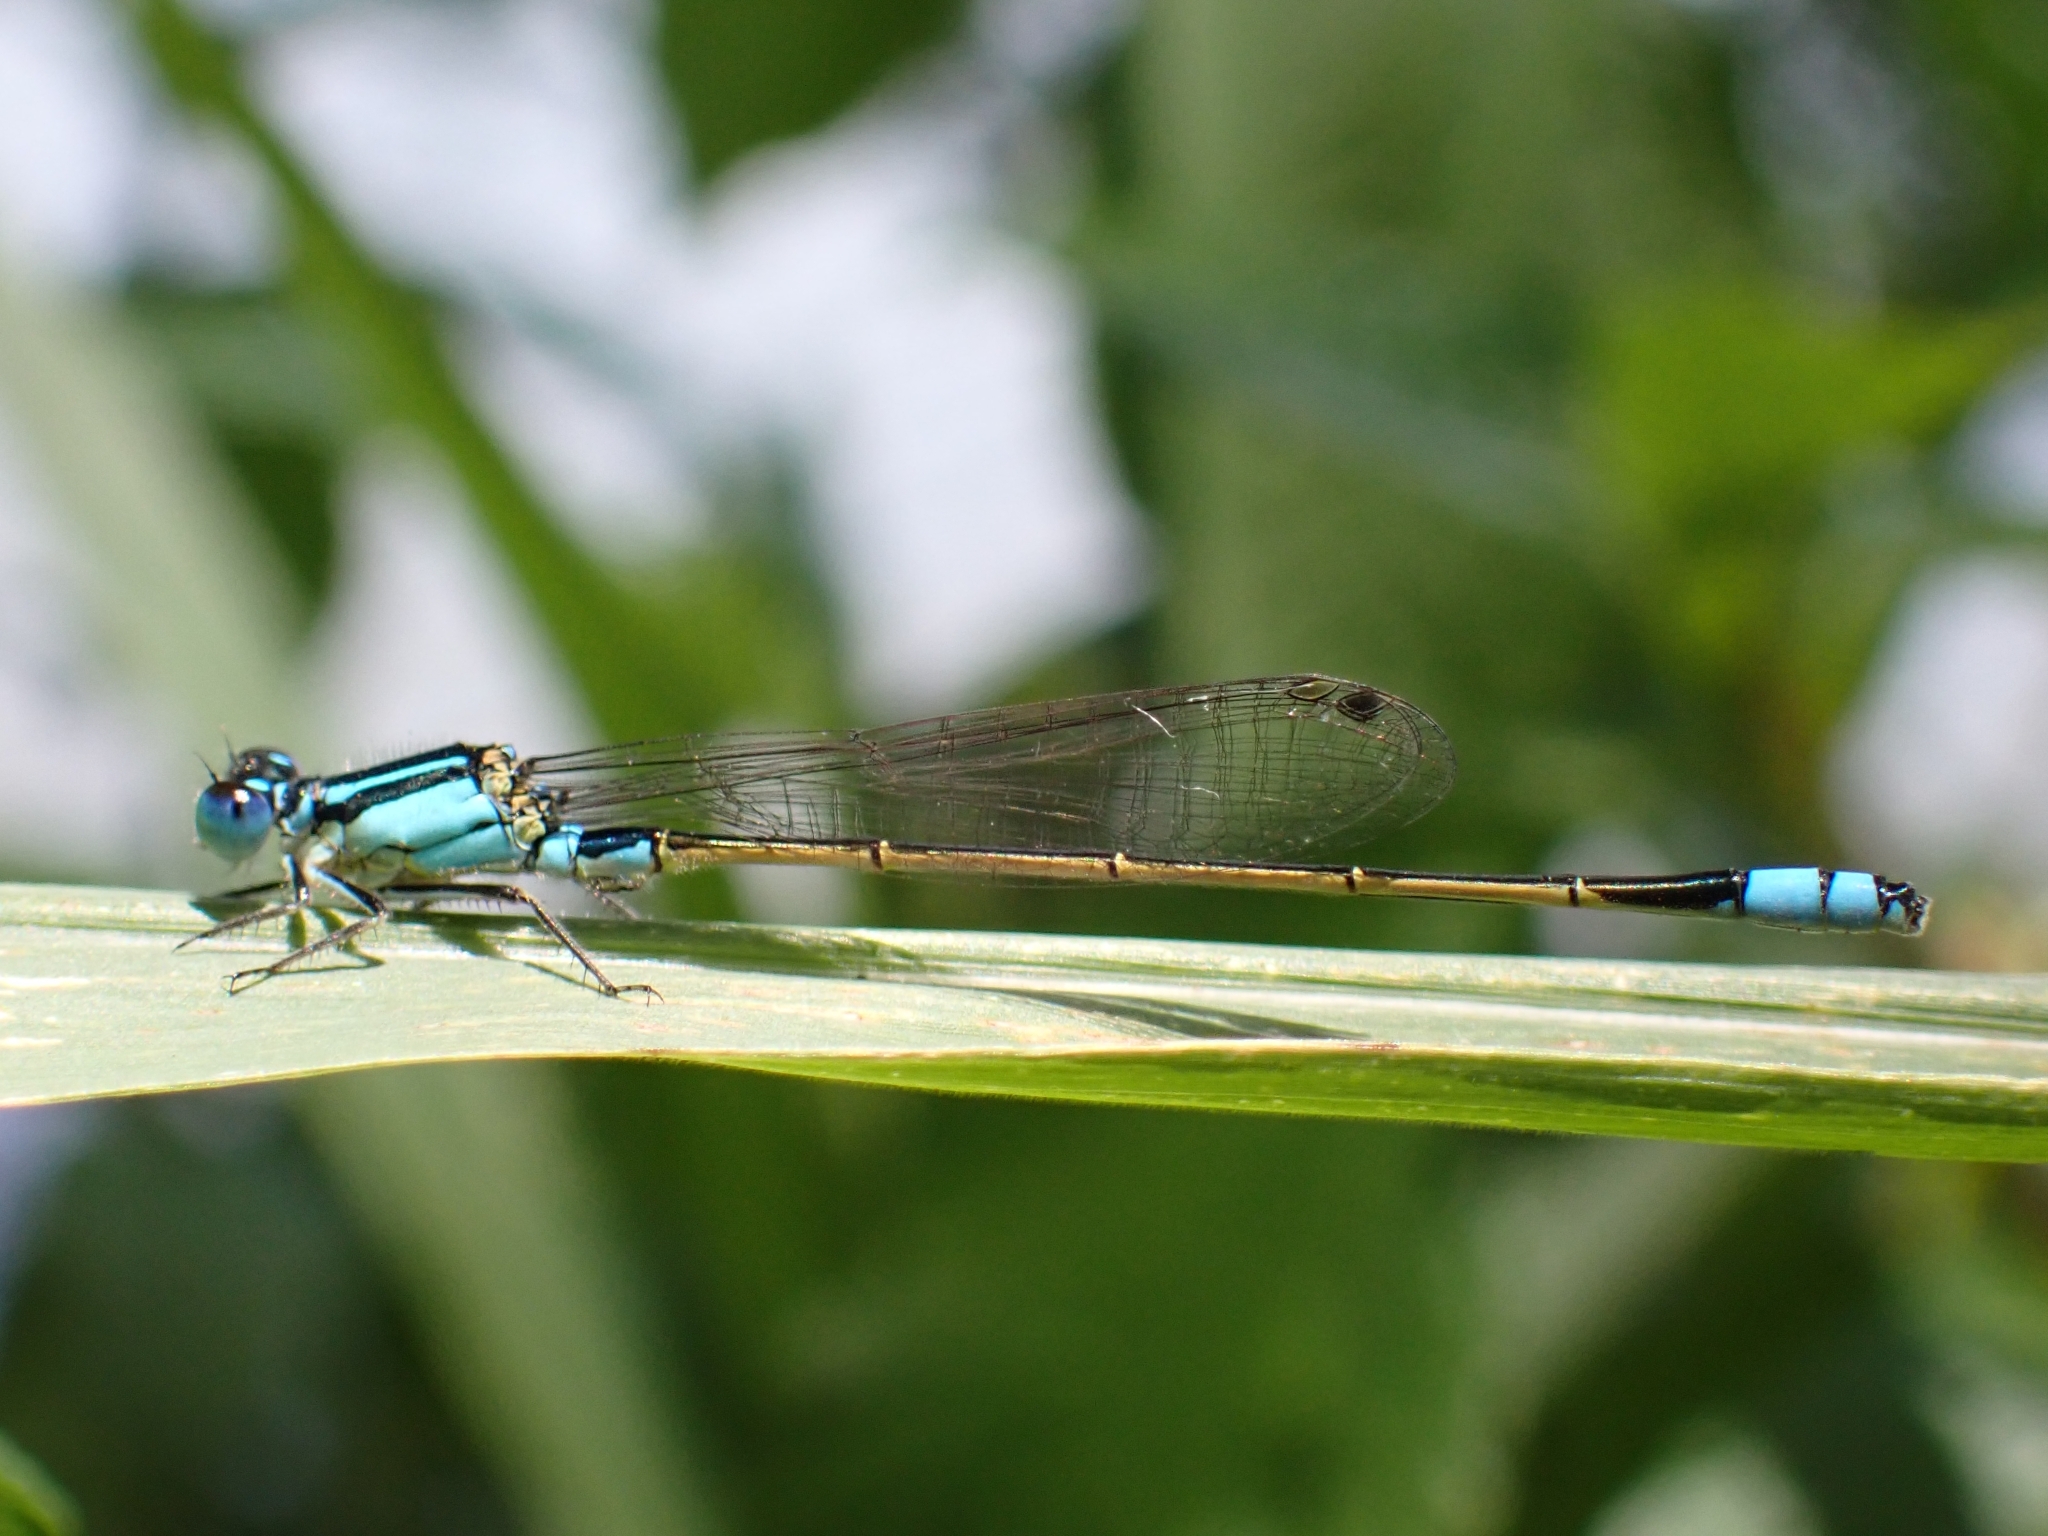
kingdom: Animalia
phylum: Arthropoda
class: Insecta
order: Odonata
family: Coenagrionidae
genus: Ischnura
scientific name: Ischnura heterosticta
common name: Common bluetail
